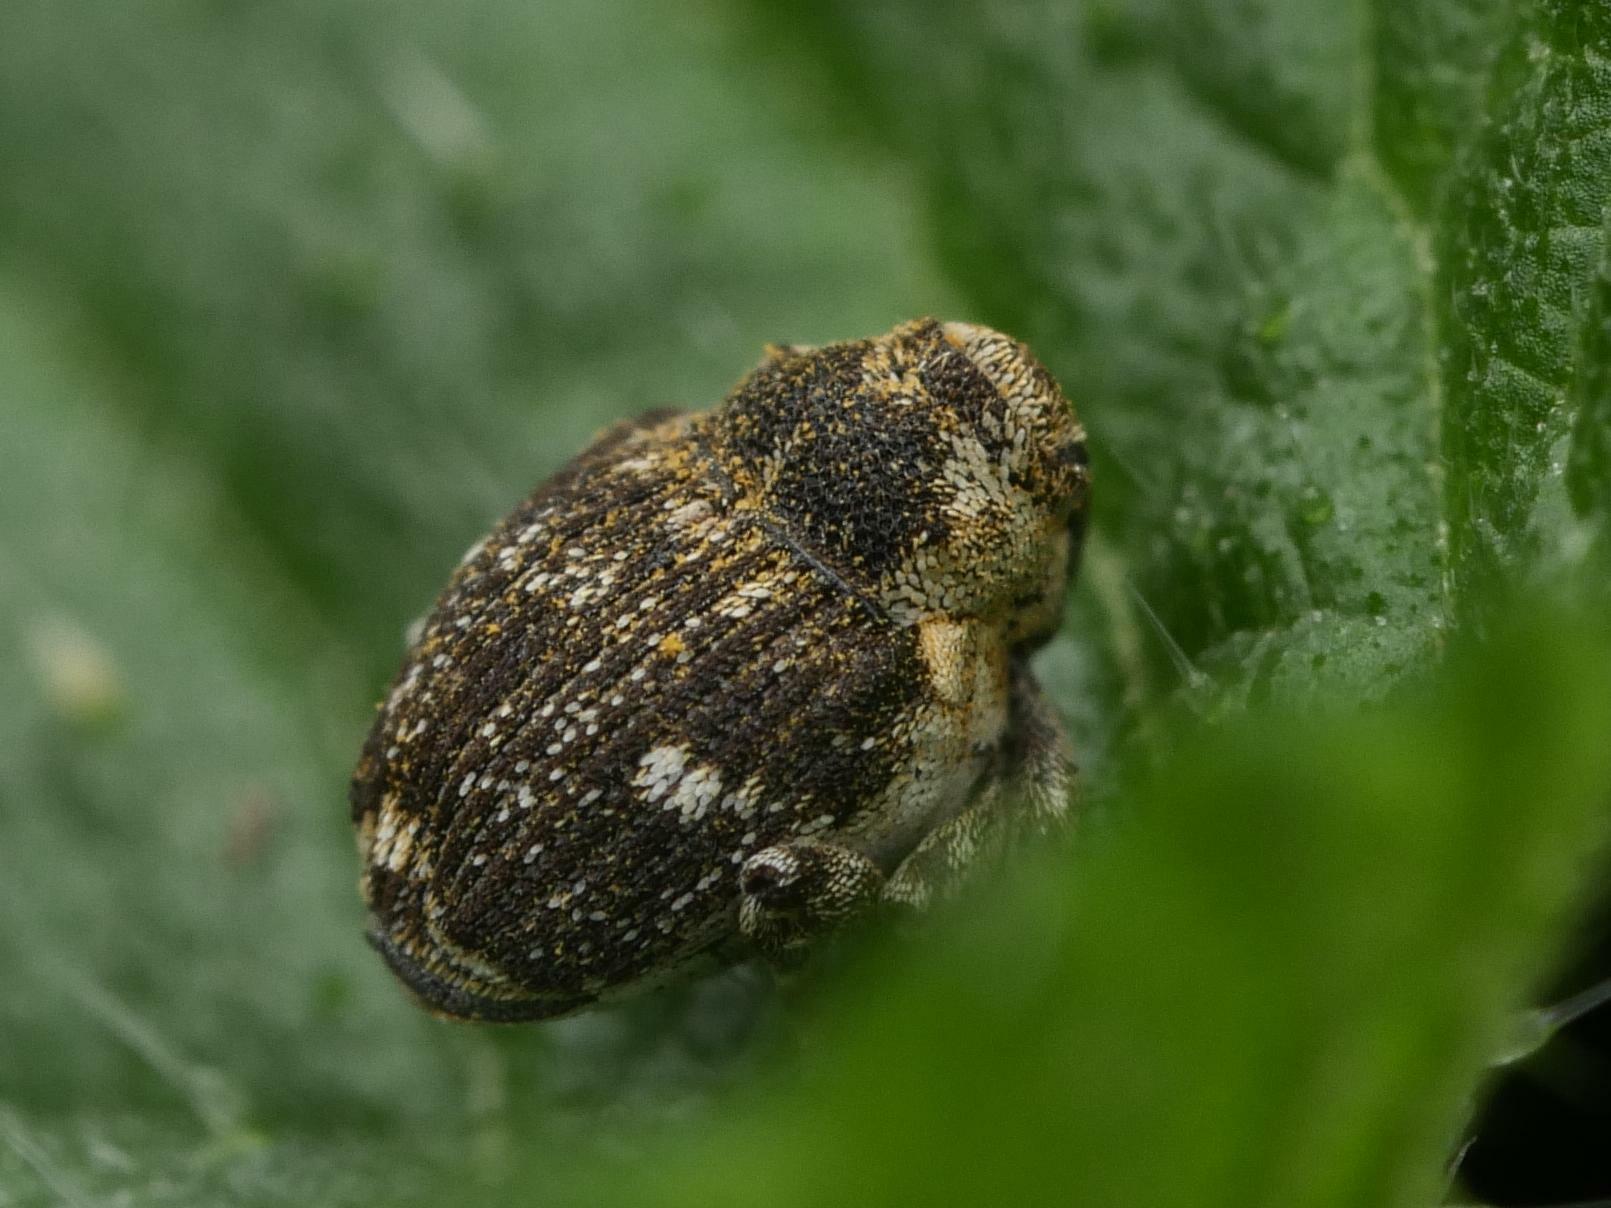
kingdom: Animalia
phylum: Arthropoda
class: Insecta
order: Coleoptera
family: Curculionidae
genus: Nedyus
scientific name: Nedyus quadrimaculatus
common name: Small nettle weevil
